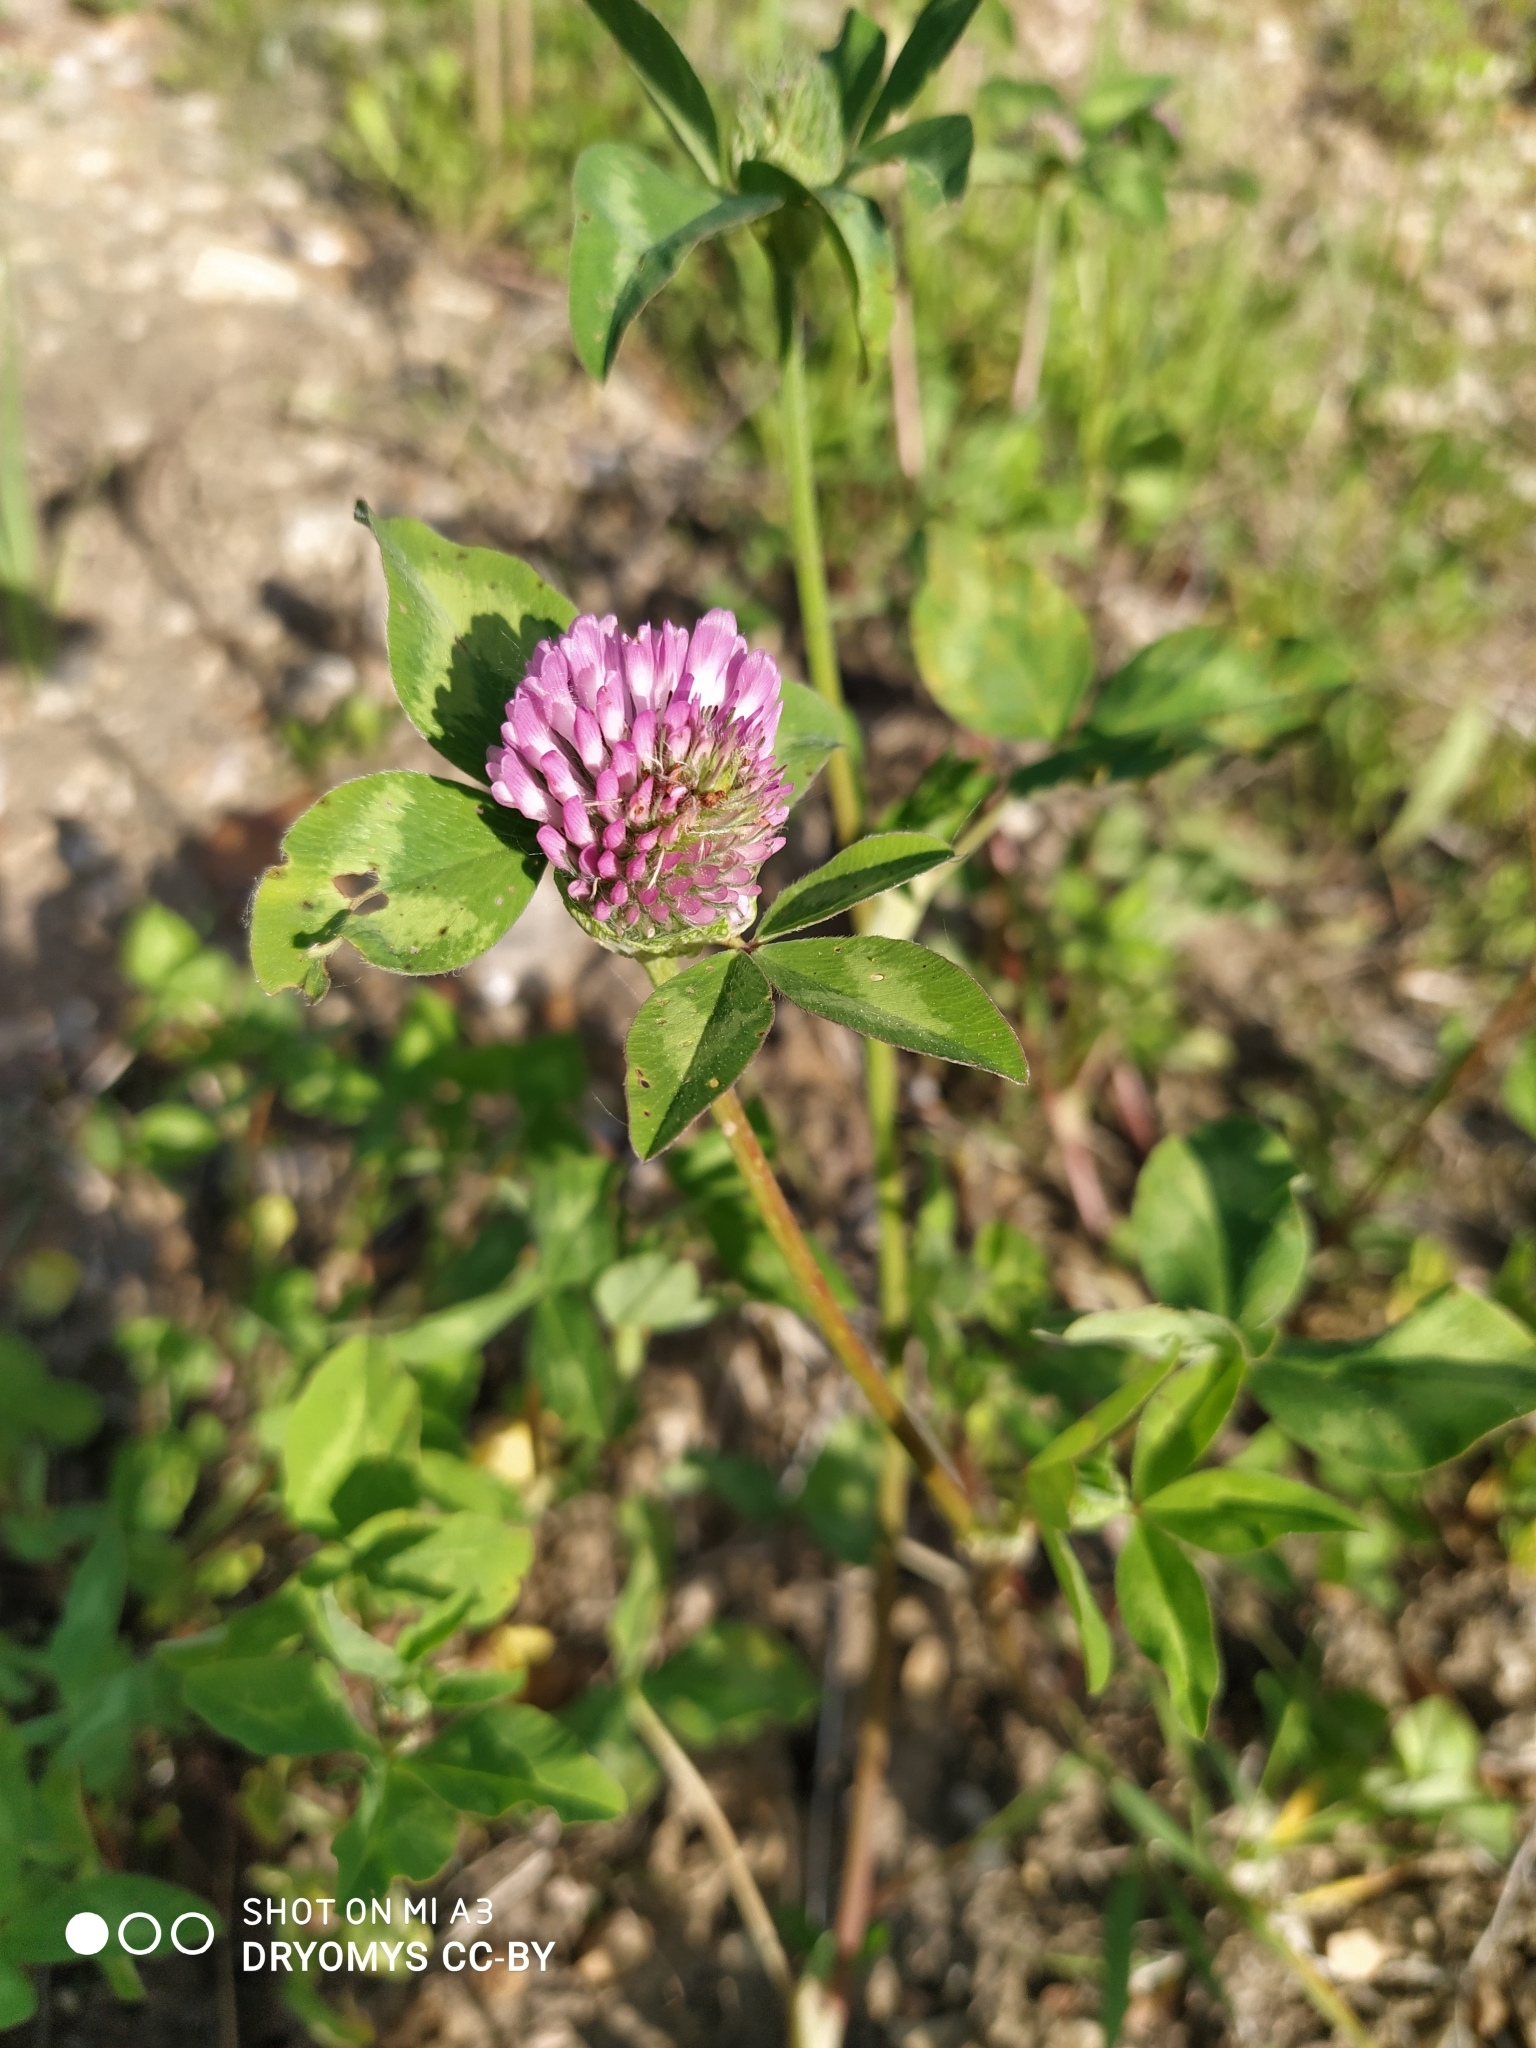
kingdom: Plantae
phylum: Tracheophyta
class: Magnoliopsida
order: Fabales
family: Fabaceae
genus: Trifolium
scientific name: Trifolium pratense
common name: Red clover
